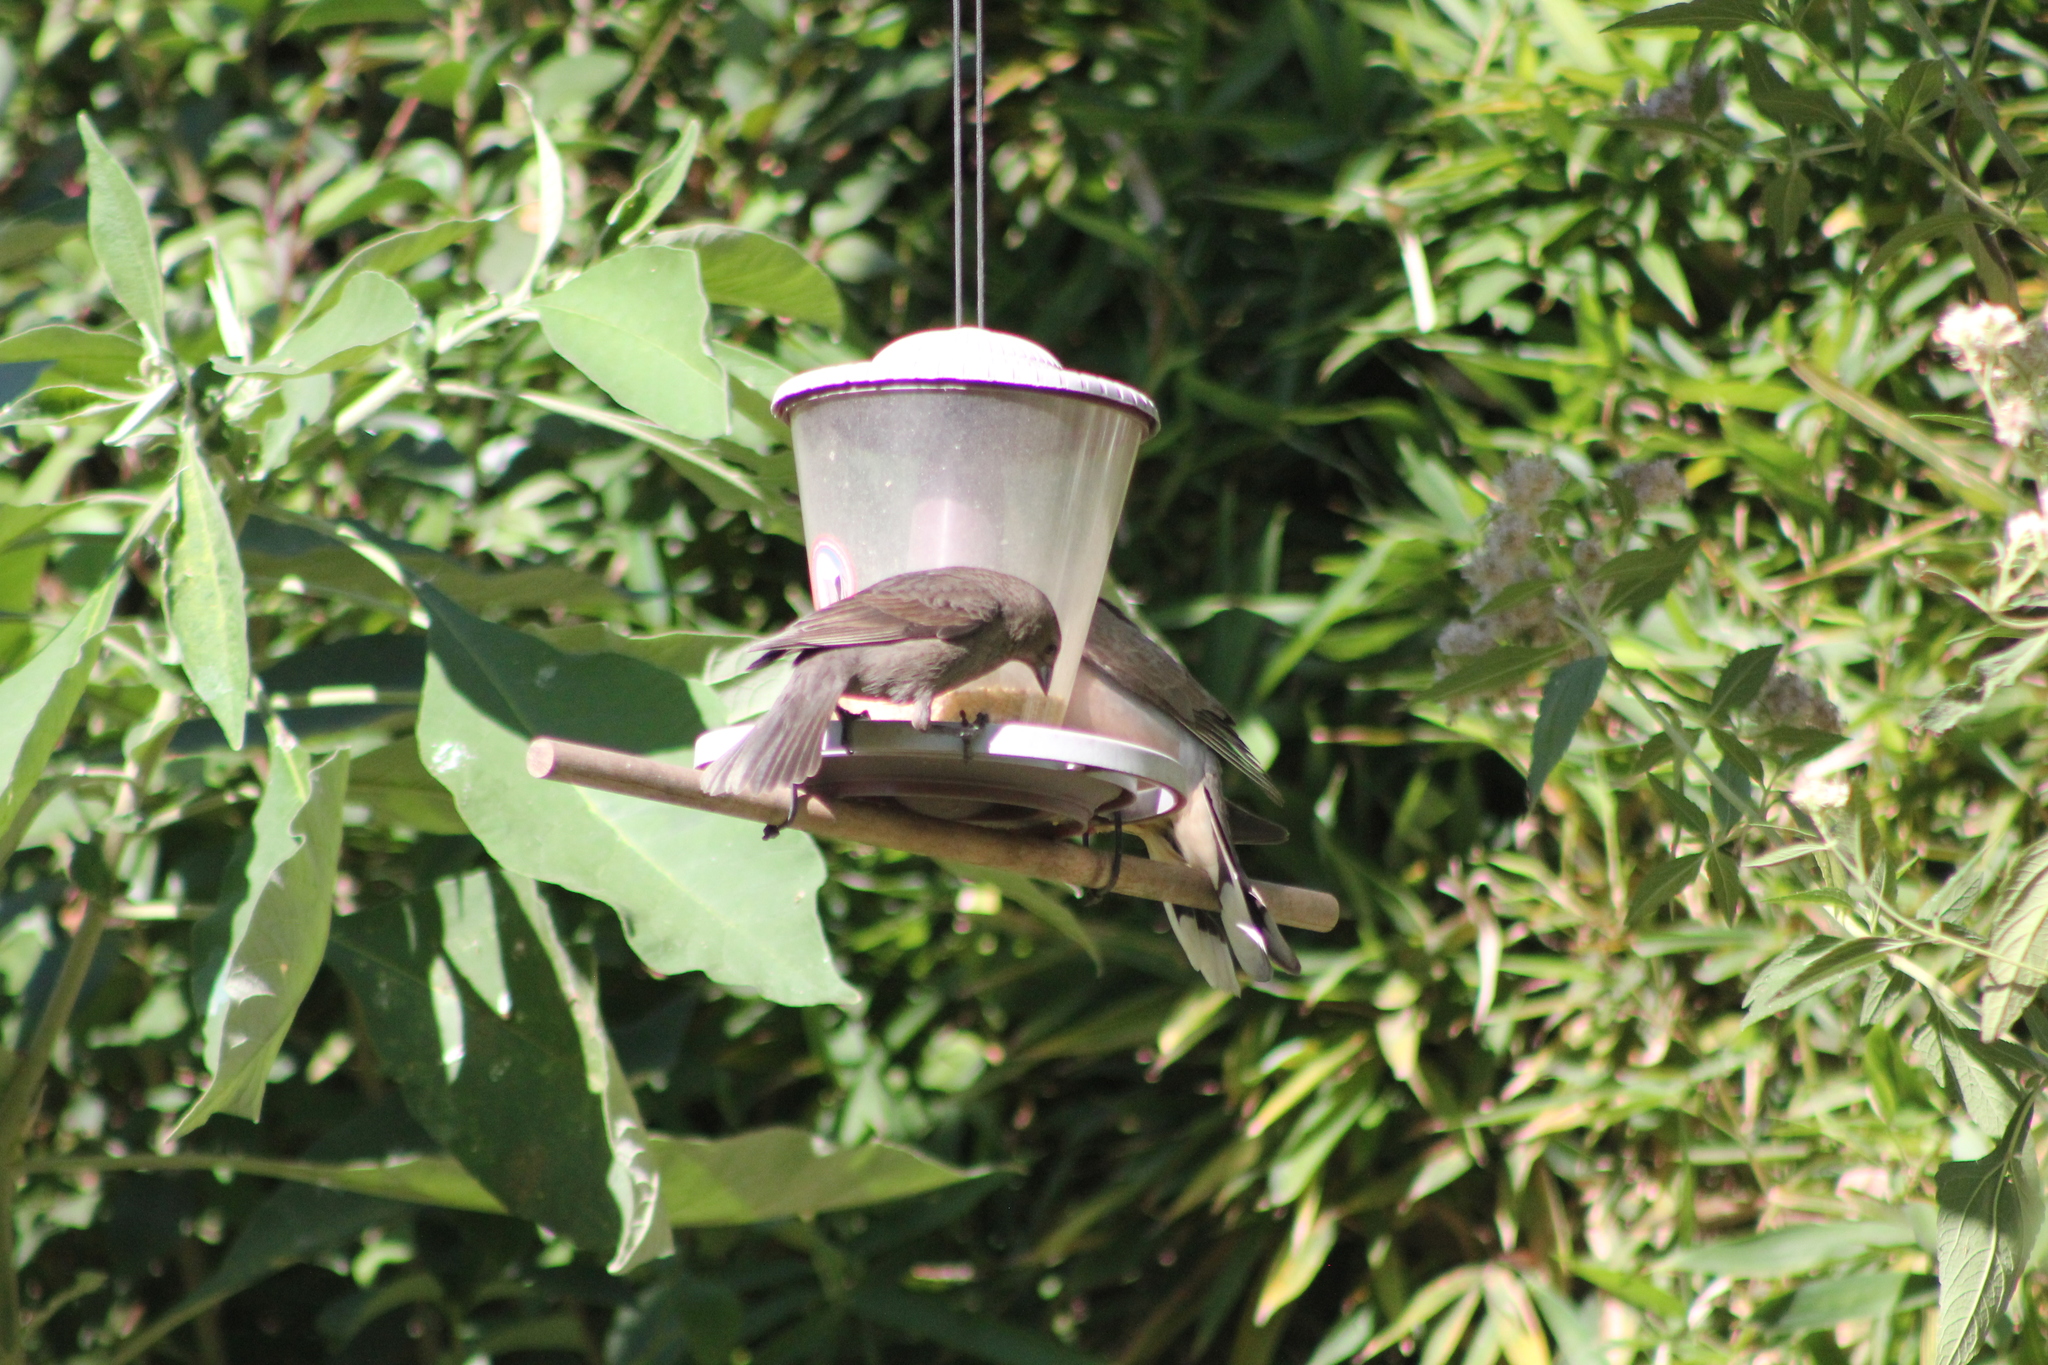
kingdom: Animalia
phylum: Chordata
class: Aves
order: Passeriformes
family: Icteridae
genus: Molothrus
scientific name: Molothrus bonariensis
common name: Shiny cowbird
